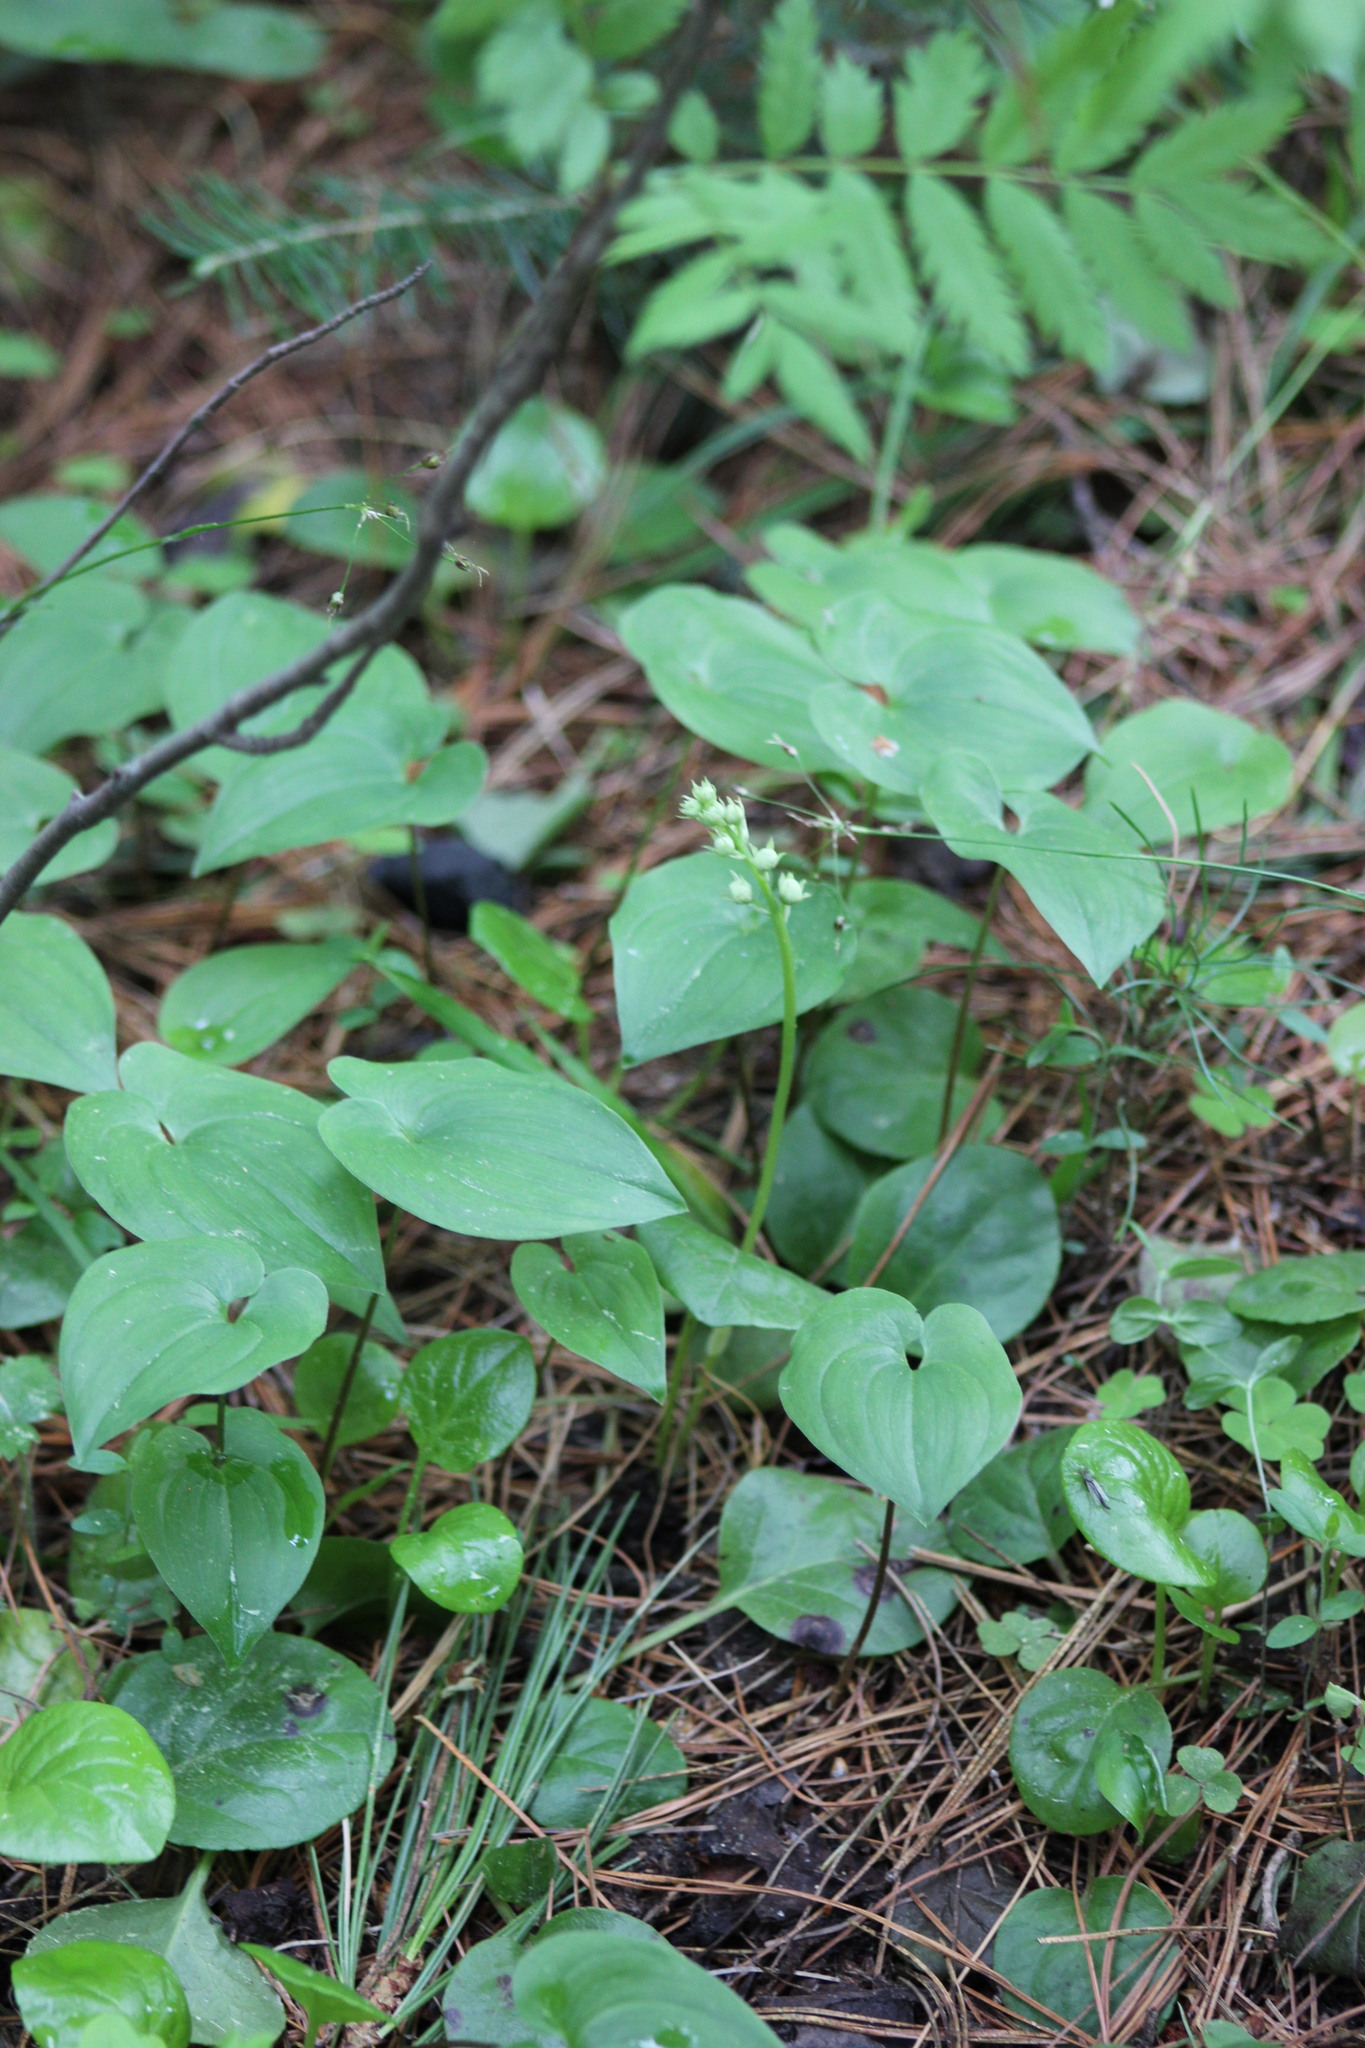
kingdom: Plantae
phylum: Tracheophyta
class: Magnoliopsida
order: Ericales
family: Ericaceae
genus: Pyrola
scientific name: Pyrola rotundifolia
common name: Round-leaved wintergreen
